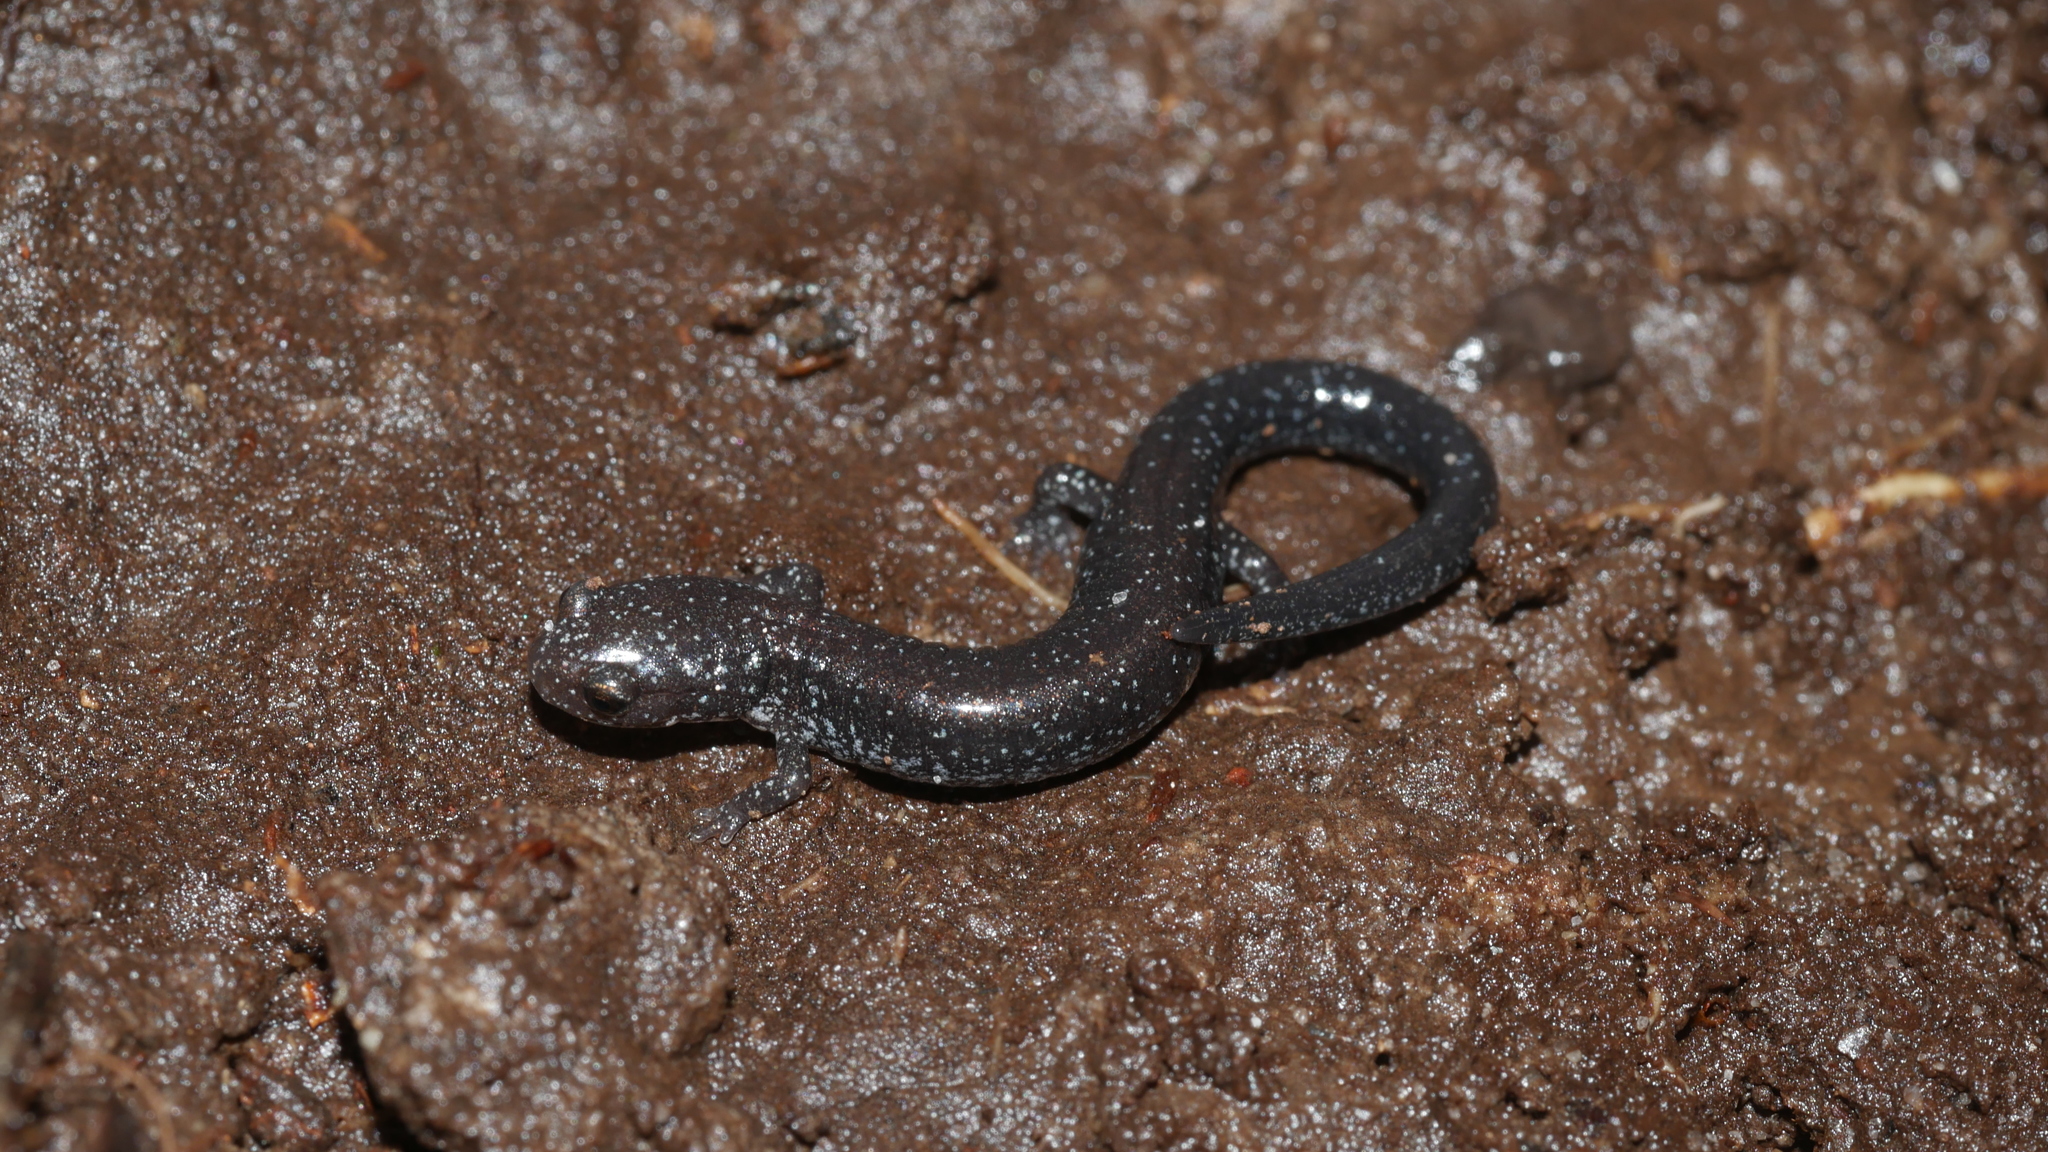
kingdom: Animalia
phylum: Chordata
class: Amphibia
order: Caudata
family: Plethodontidae
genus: Plethodon
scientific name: Plethodon cinereus
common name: Redback salamander
